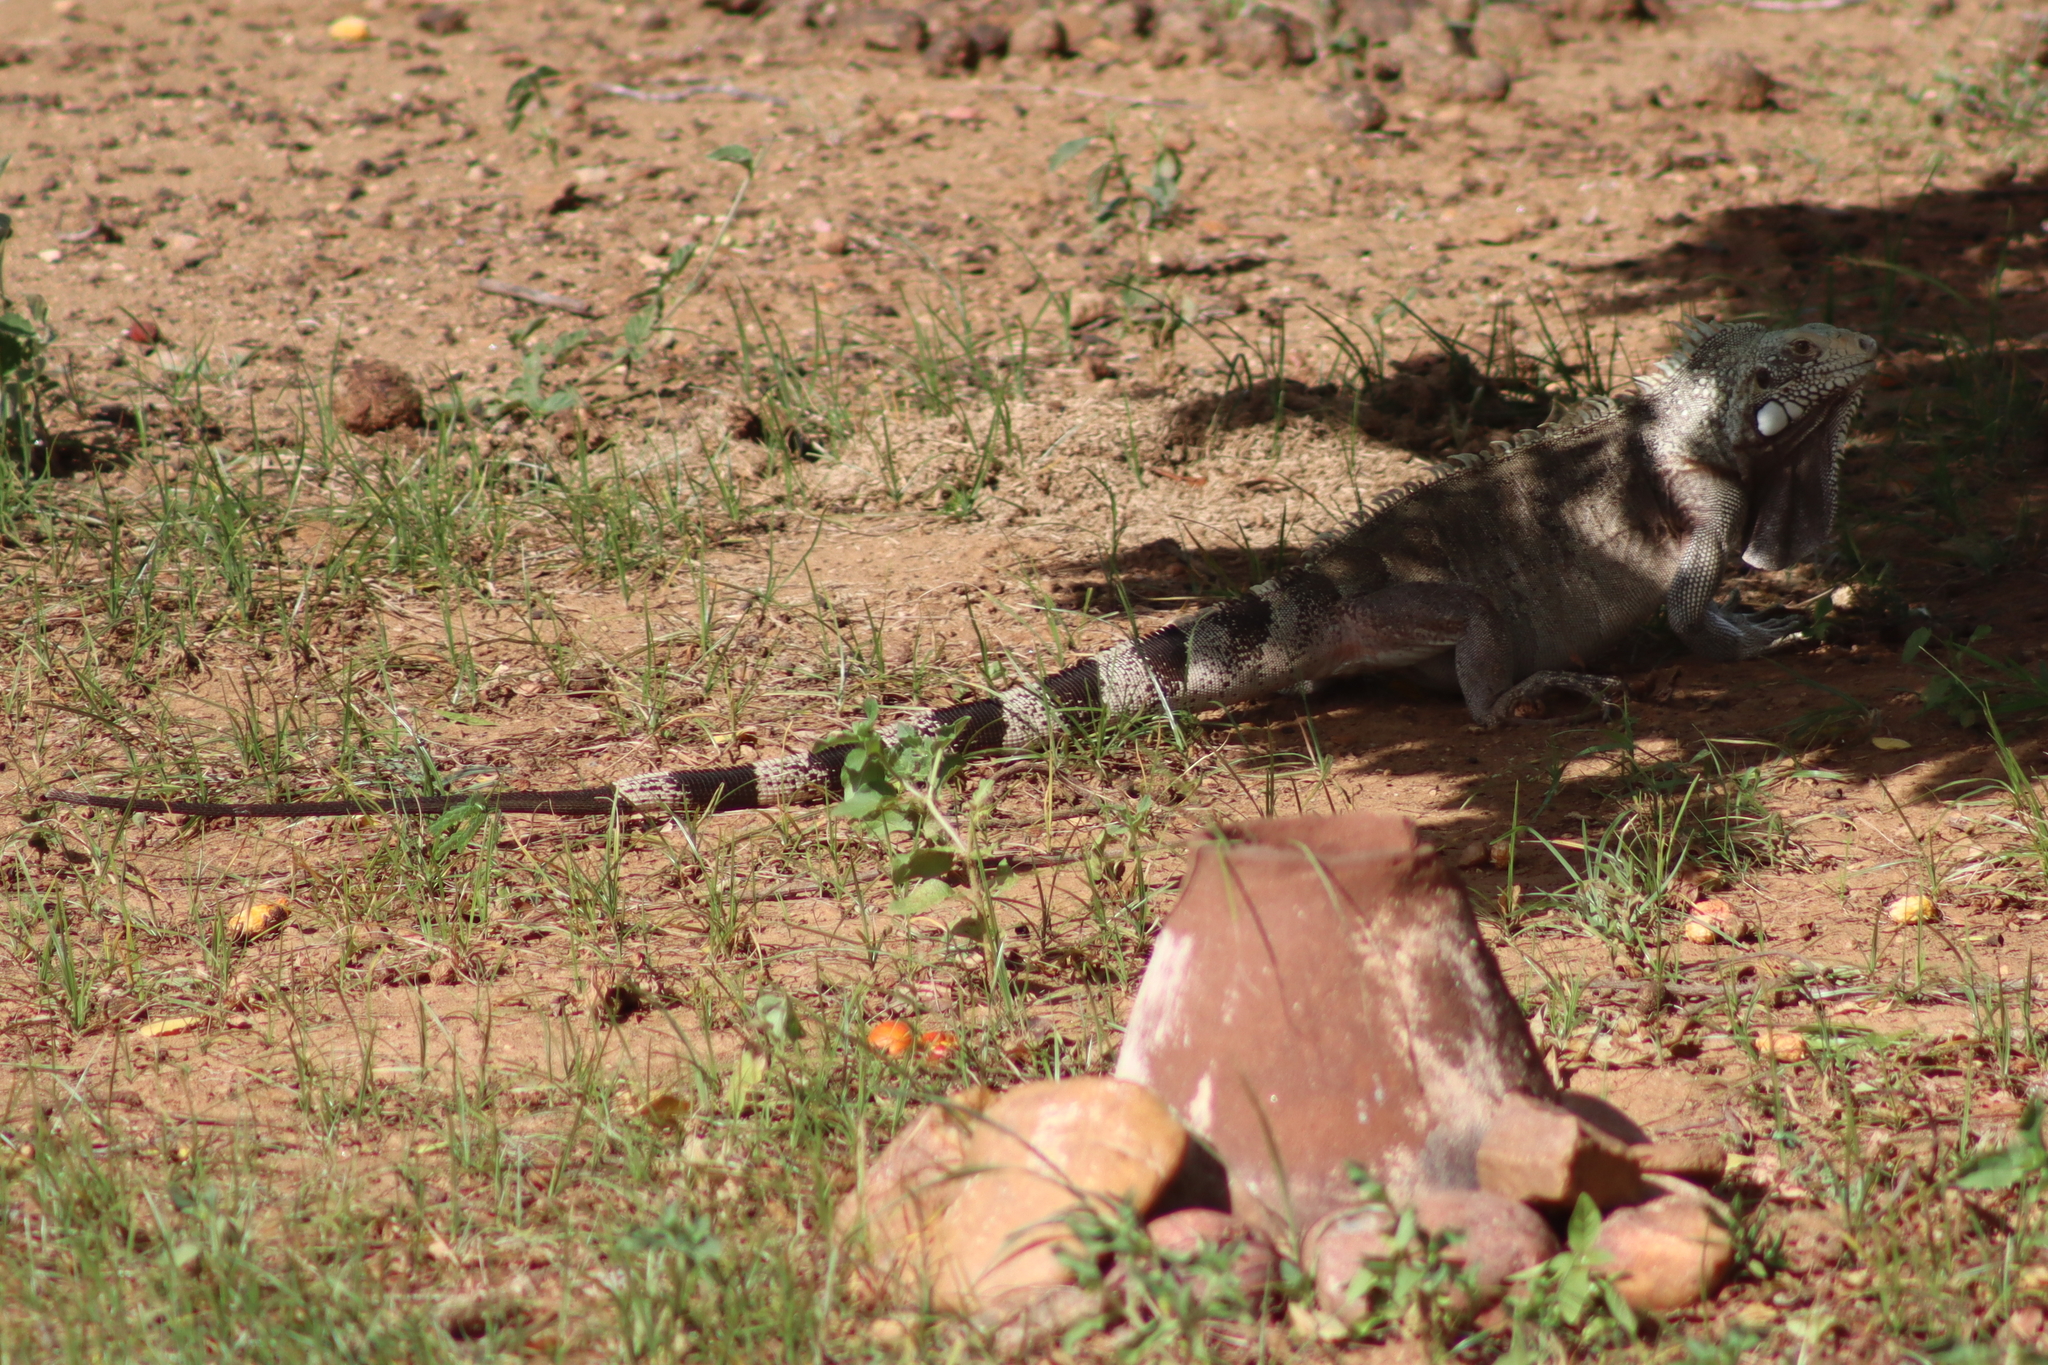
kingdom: Animalia
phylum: Chordata
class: Squamata
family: Iguanidae
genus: Iguana
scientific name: Iguana iguana
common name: Green iguana
